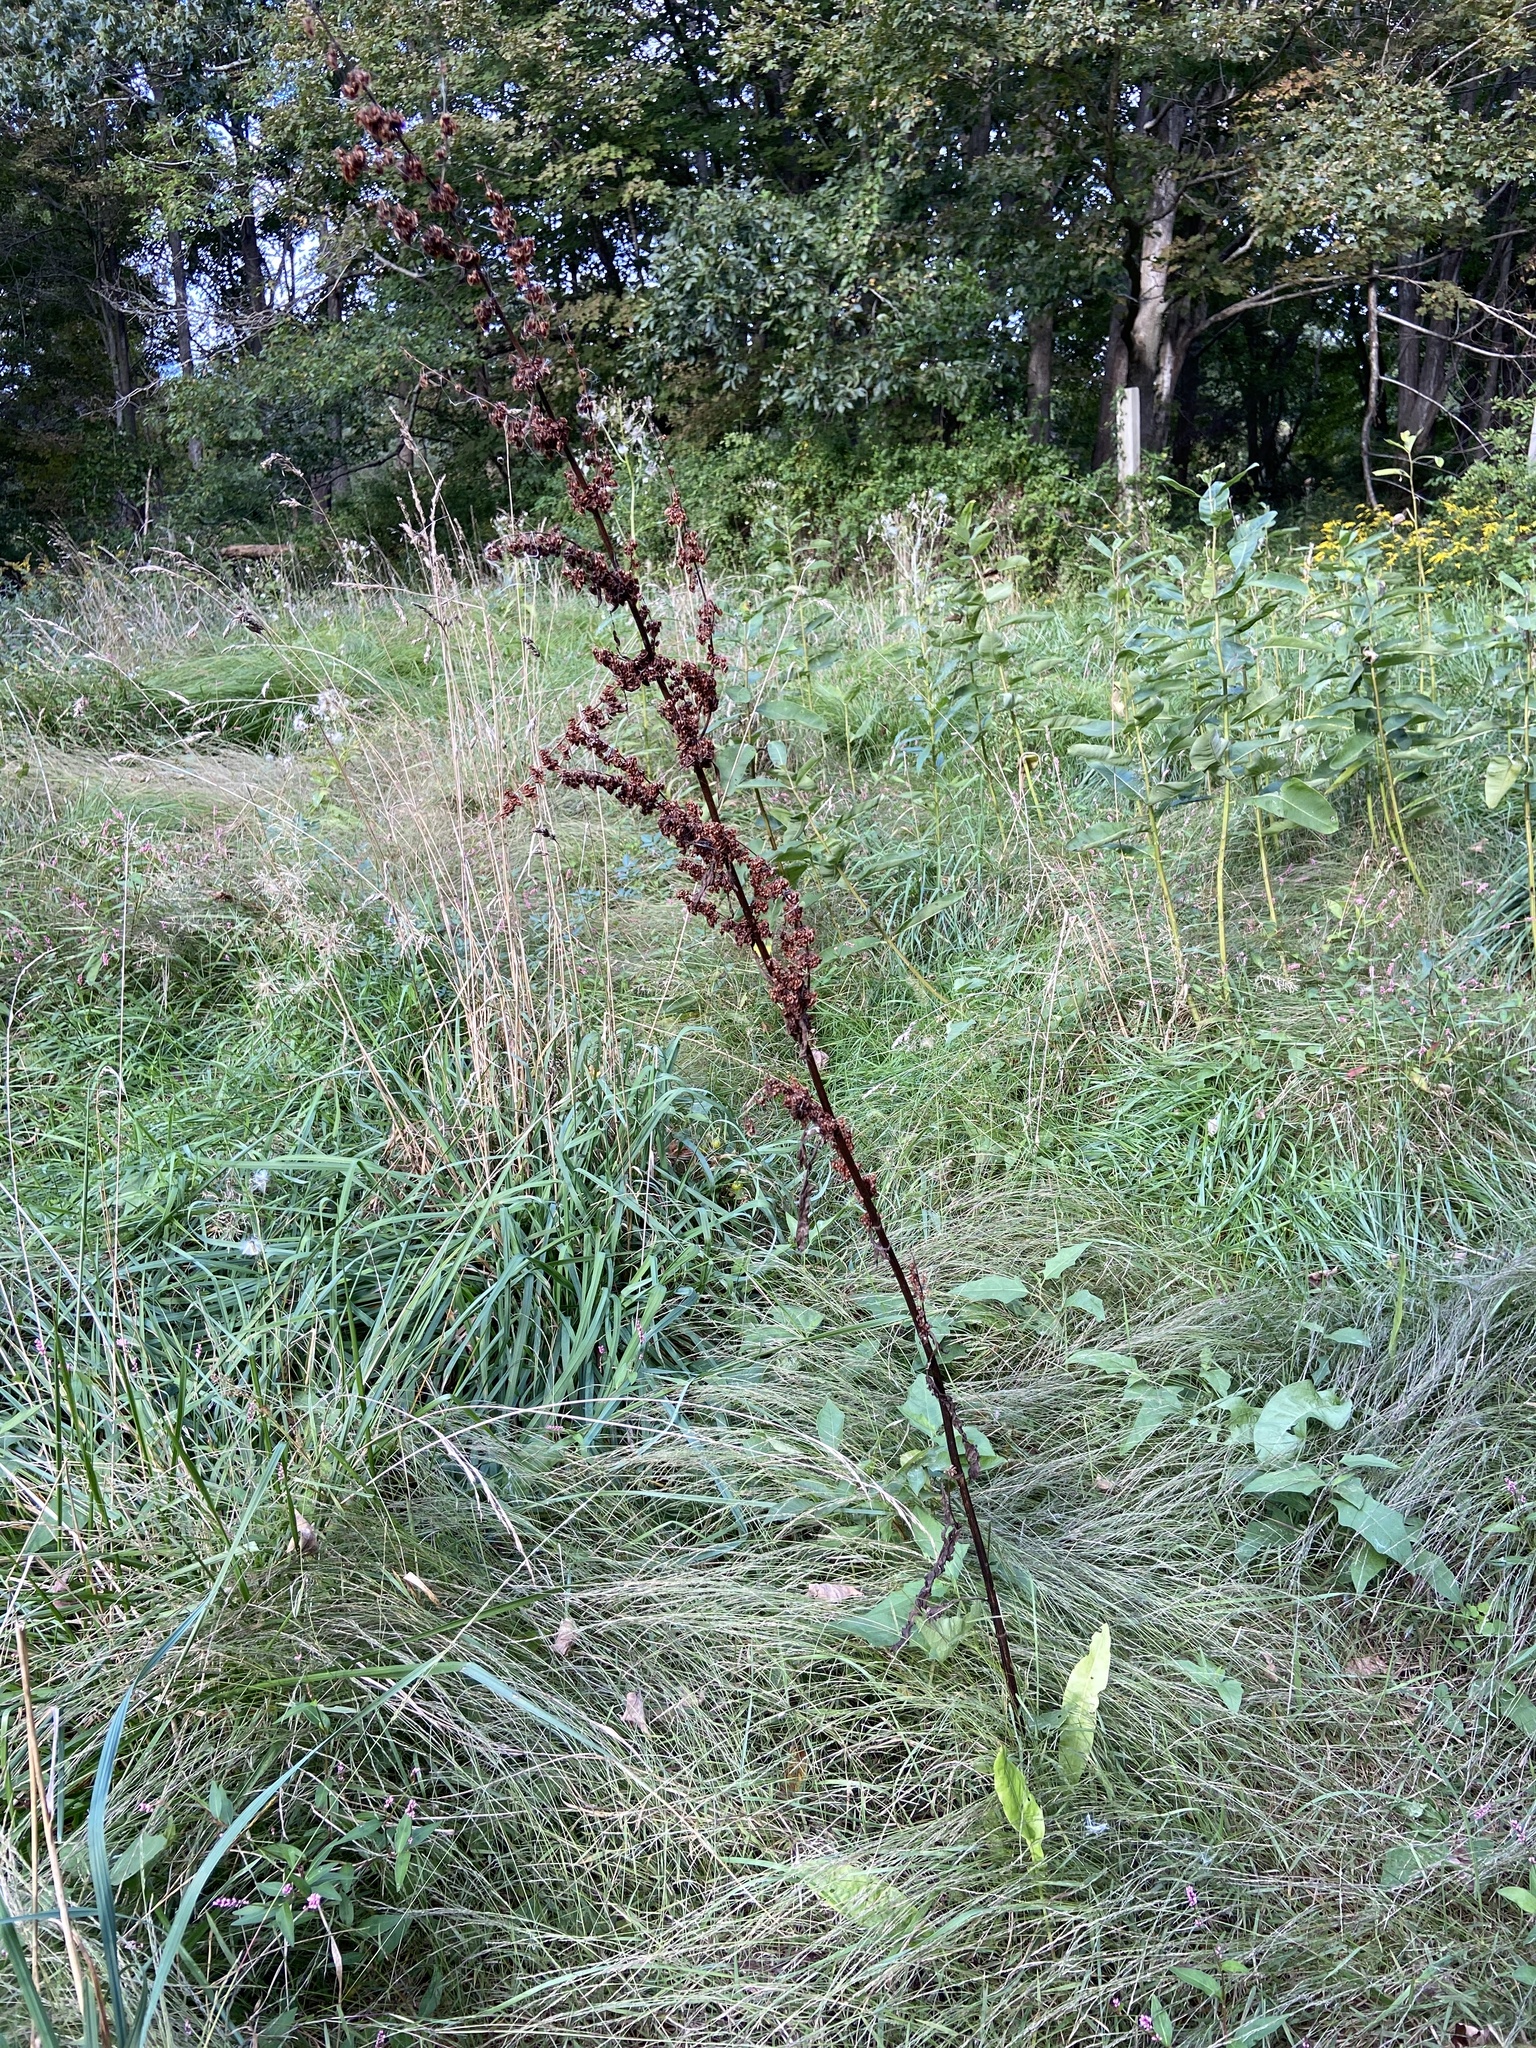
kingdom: Plantae
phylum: Tracheophyta
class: Magnoliopsida
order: Caryophyllales
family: Polygonaceae
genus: Rumex
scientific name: Rumex crispus
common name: Curled dock
